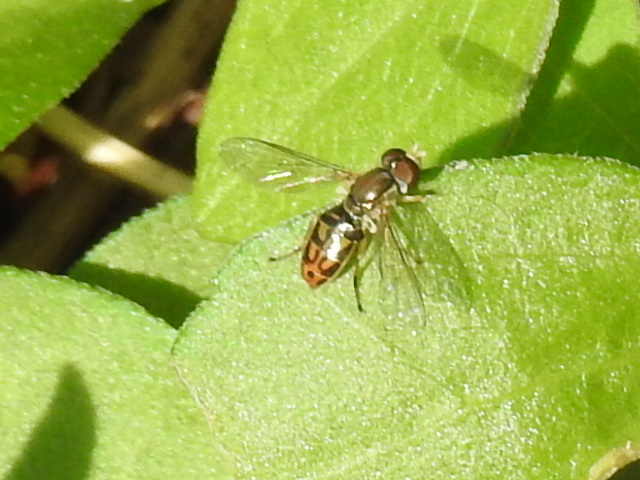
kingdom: Animalia
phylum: Arthropoda
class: Insecta
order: Diptera
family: Syrphidae
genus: Toxomerus
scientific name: Toxomerus marginatus
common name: Syrphid fly
